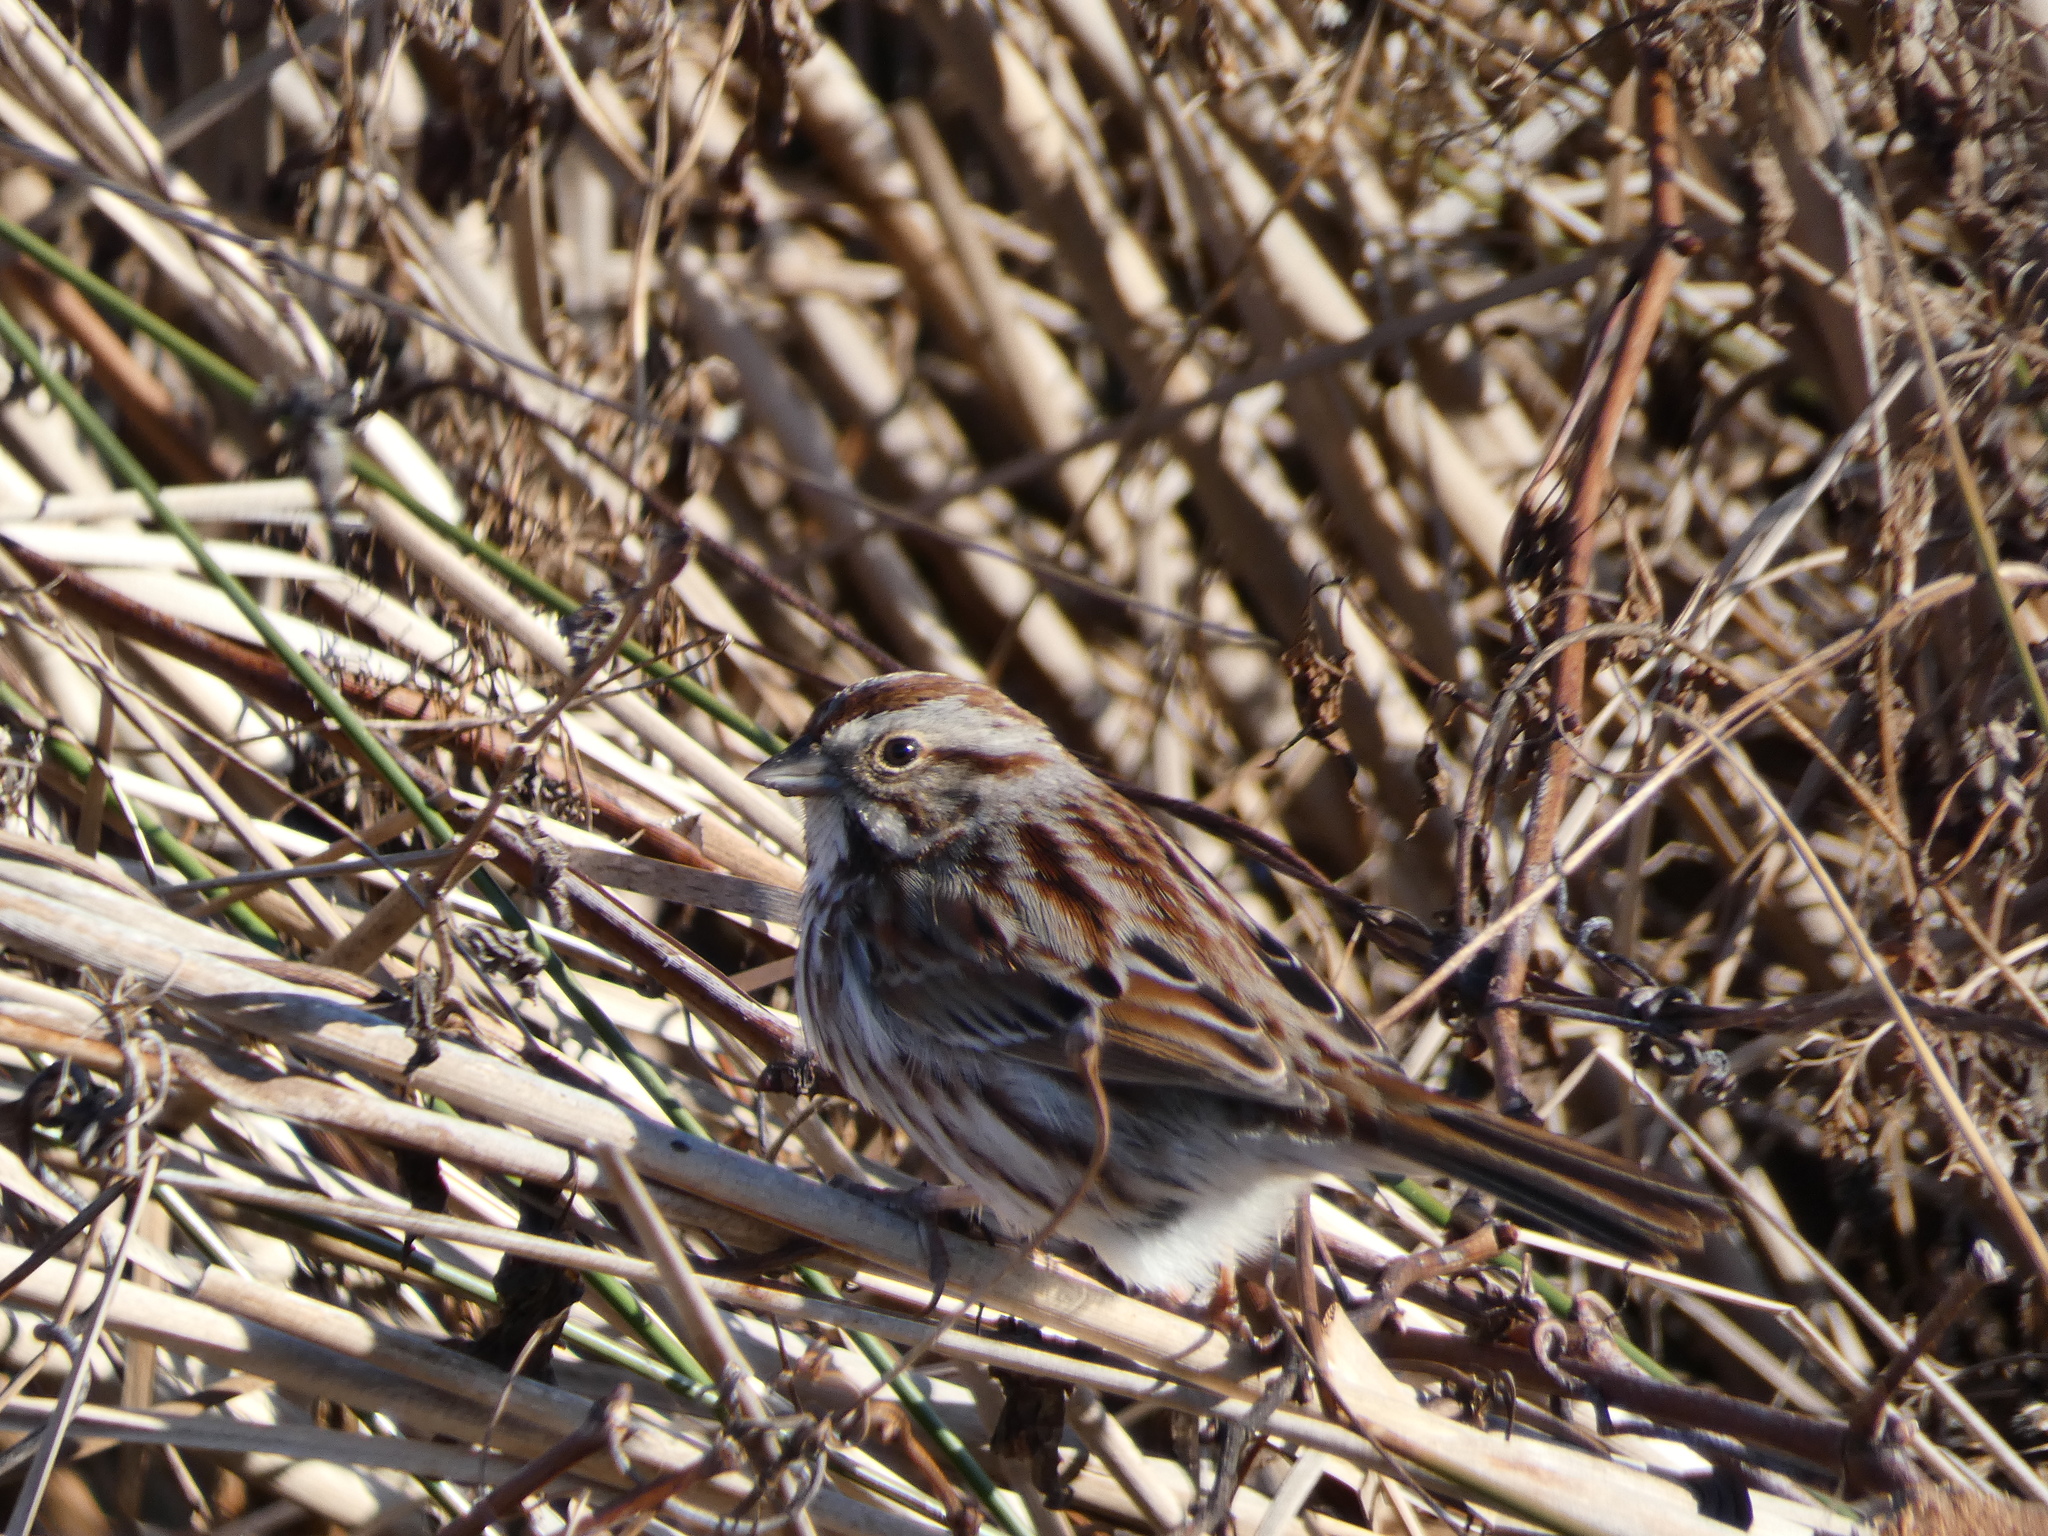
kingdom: Animalia
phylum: Chordata
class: Aves
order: Passeriformes
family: Passerellidae
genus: Melospiza
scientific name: Melospiza melodia
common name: Song sparrow
